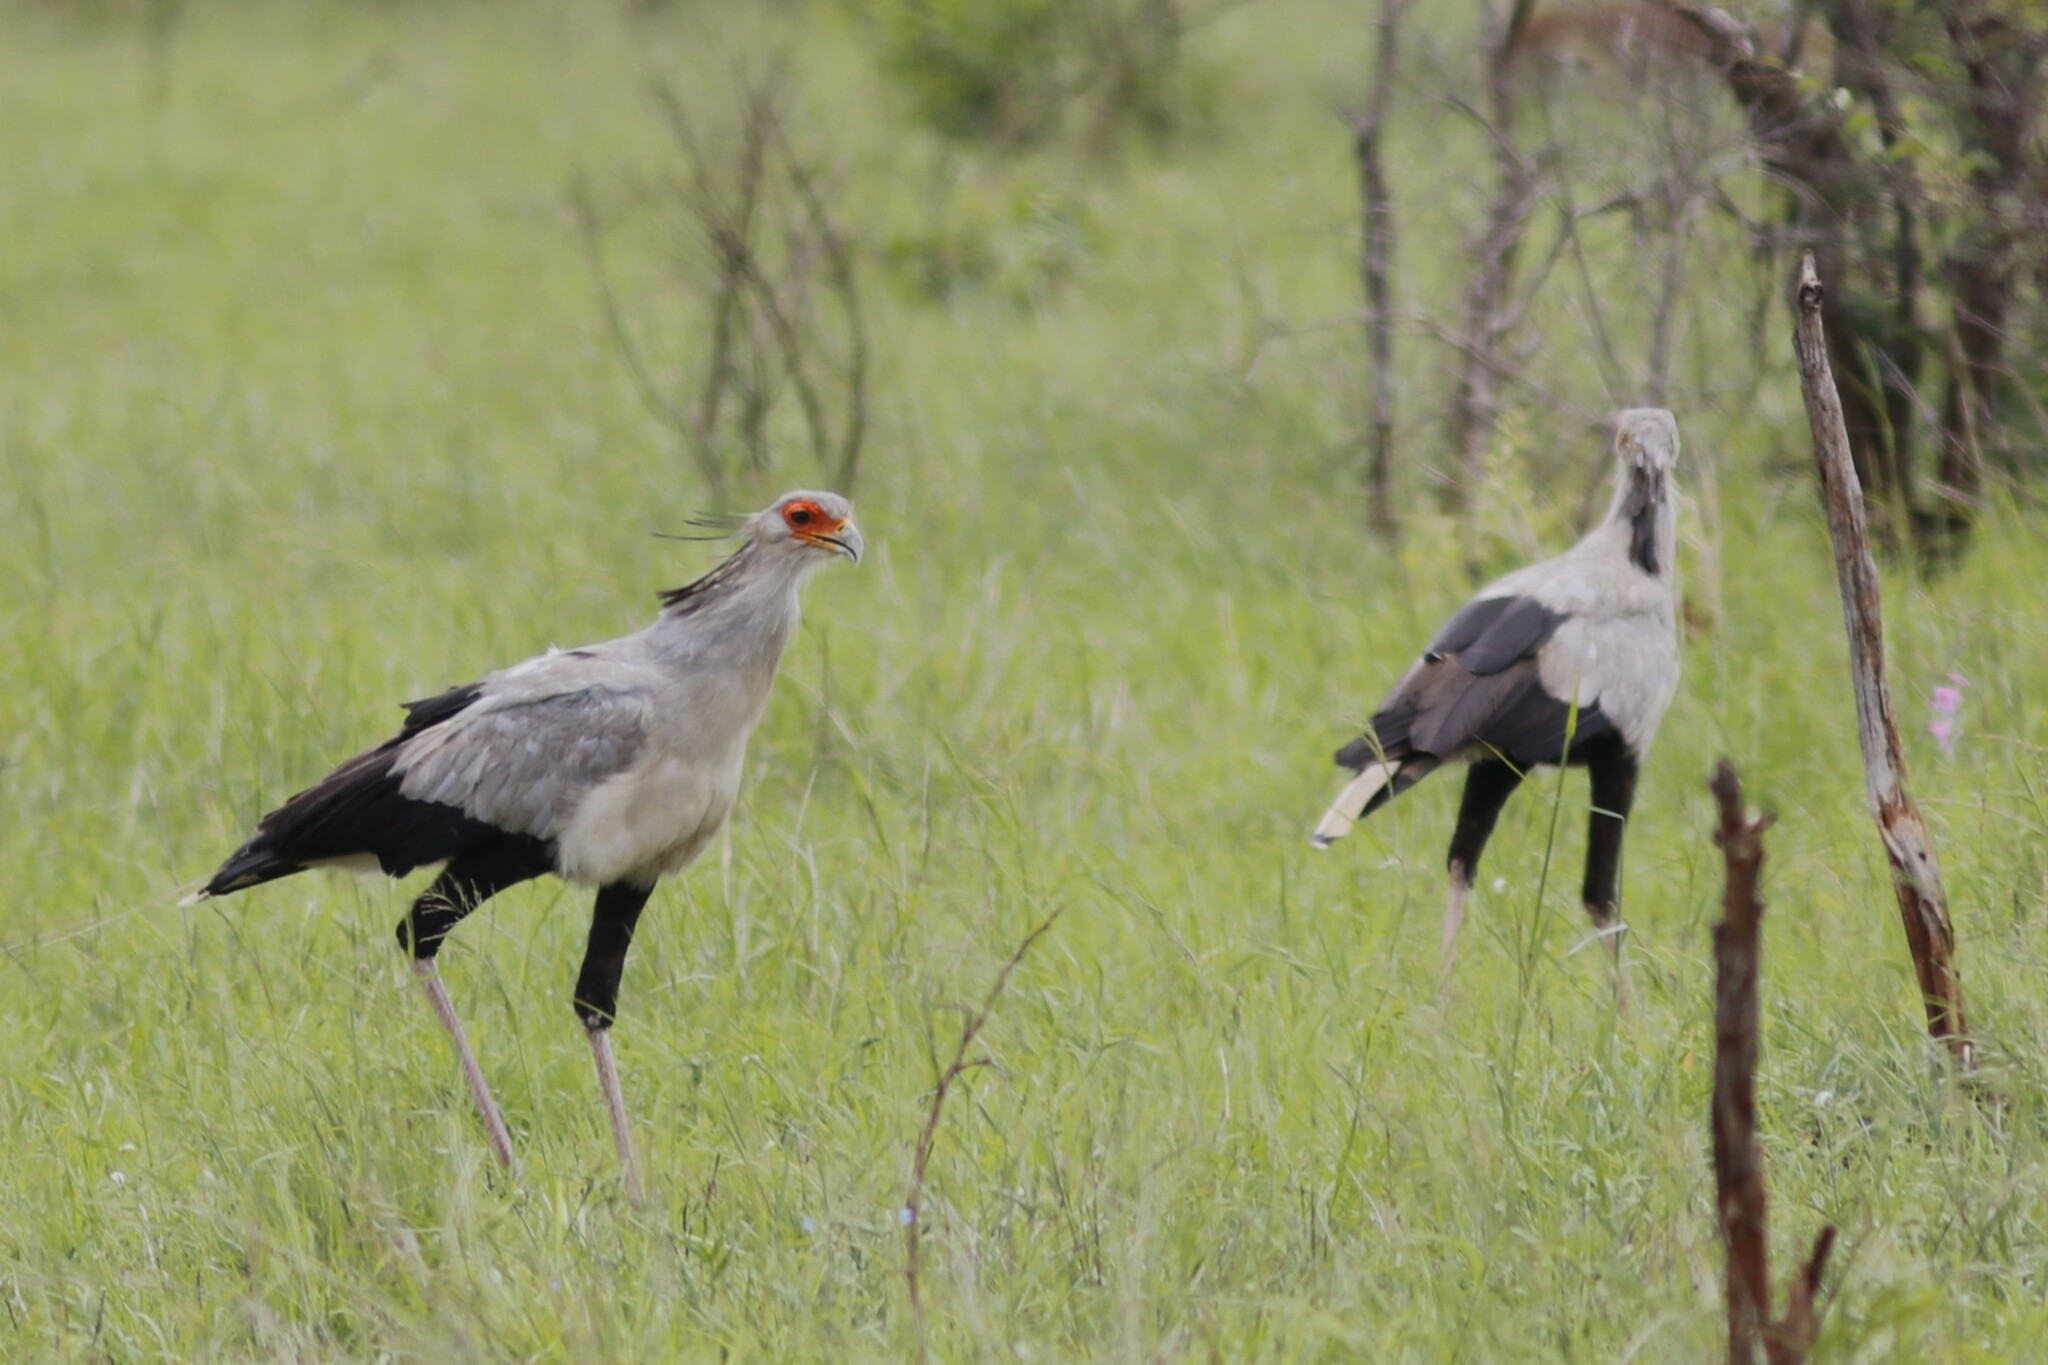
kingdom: Animalia
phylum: Chordata
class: Aves
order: Accipitriformes
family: Sagittariidae
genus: Sagittarius
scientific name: Sagittarius serpentarius
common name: Secretarybird
